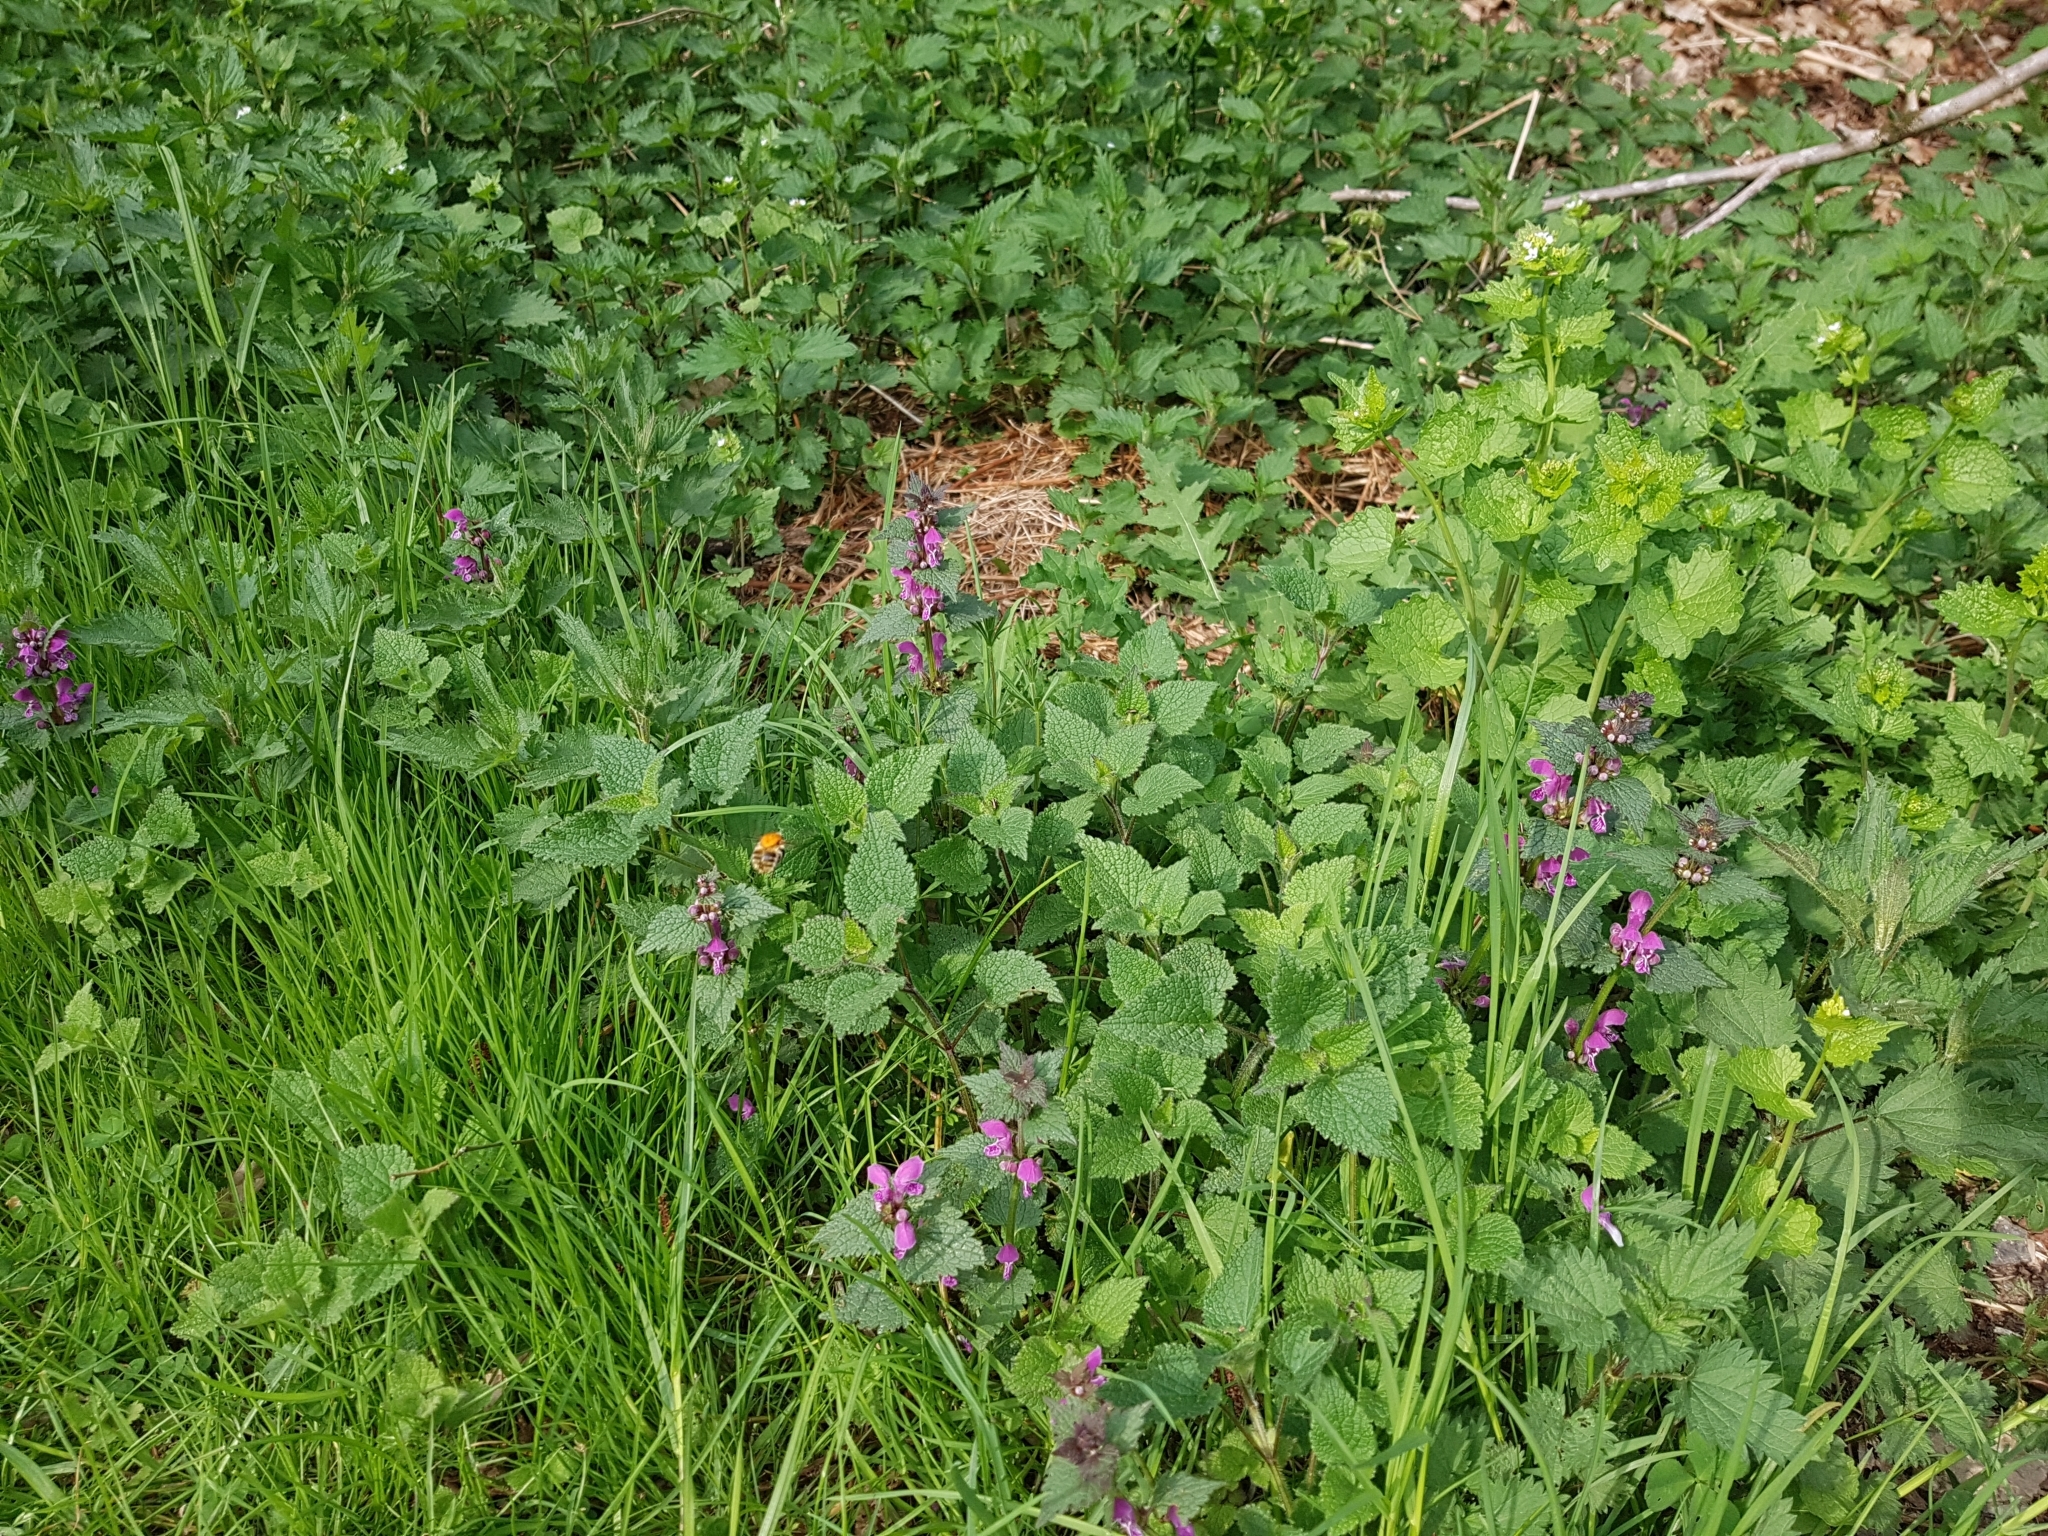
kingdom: Plantae
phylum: Tracheophyta
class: Magnoliopsida
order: Brassicales
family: Brassicaceae
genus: Alliaria
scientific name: Alliaria petiolata
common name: Garlic mustard
